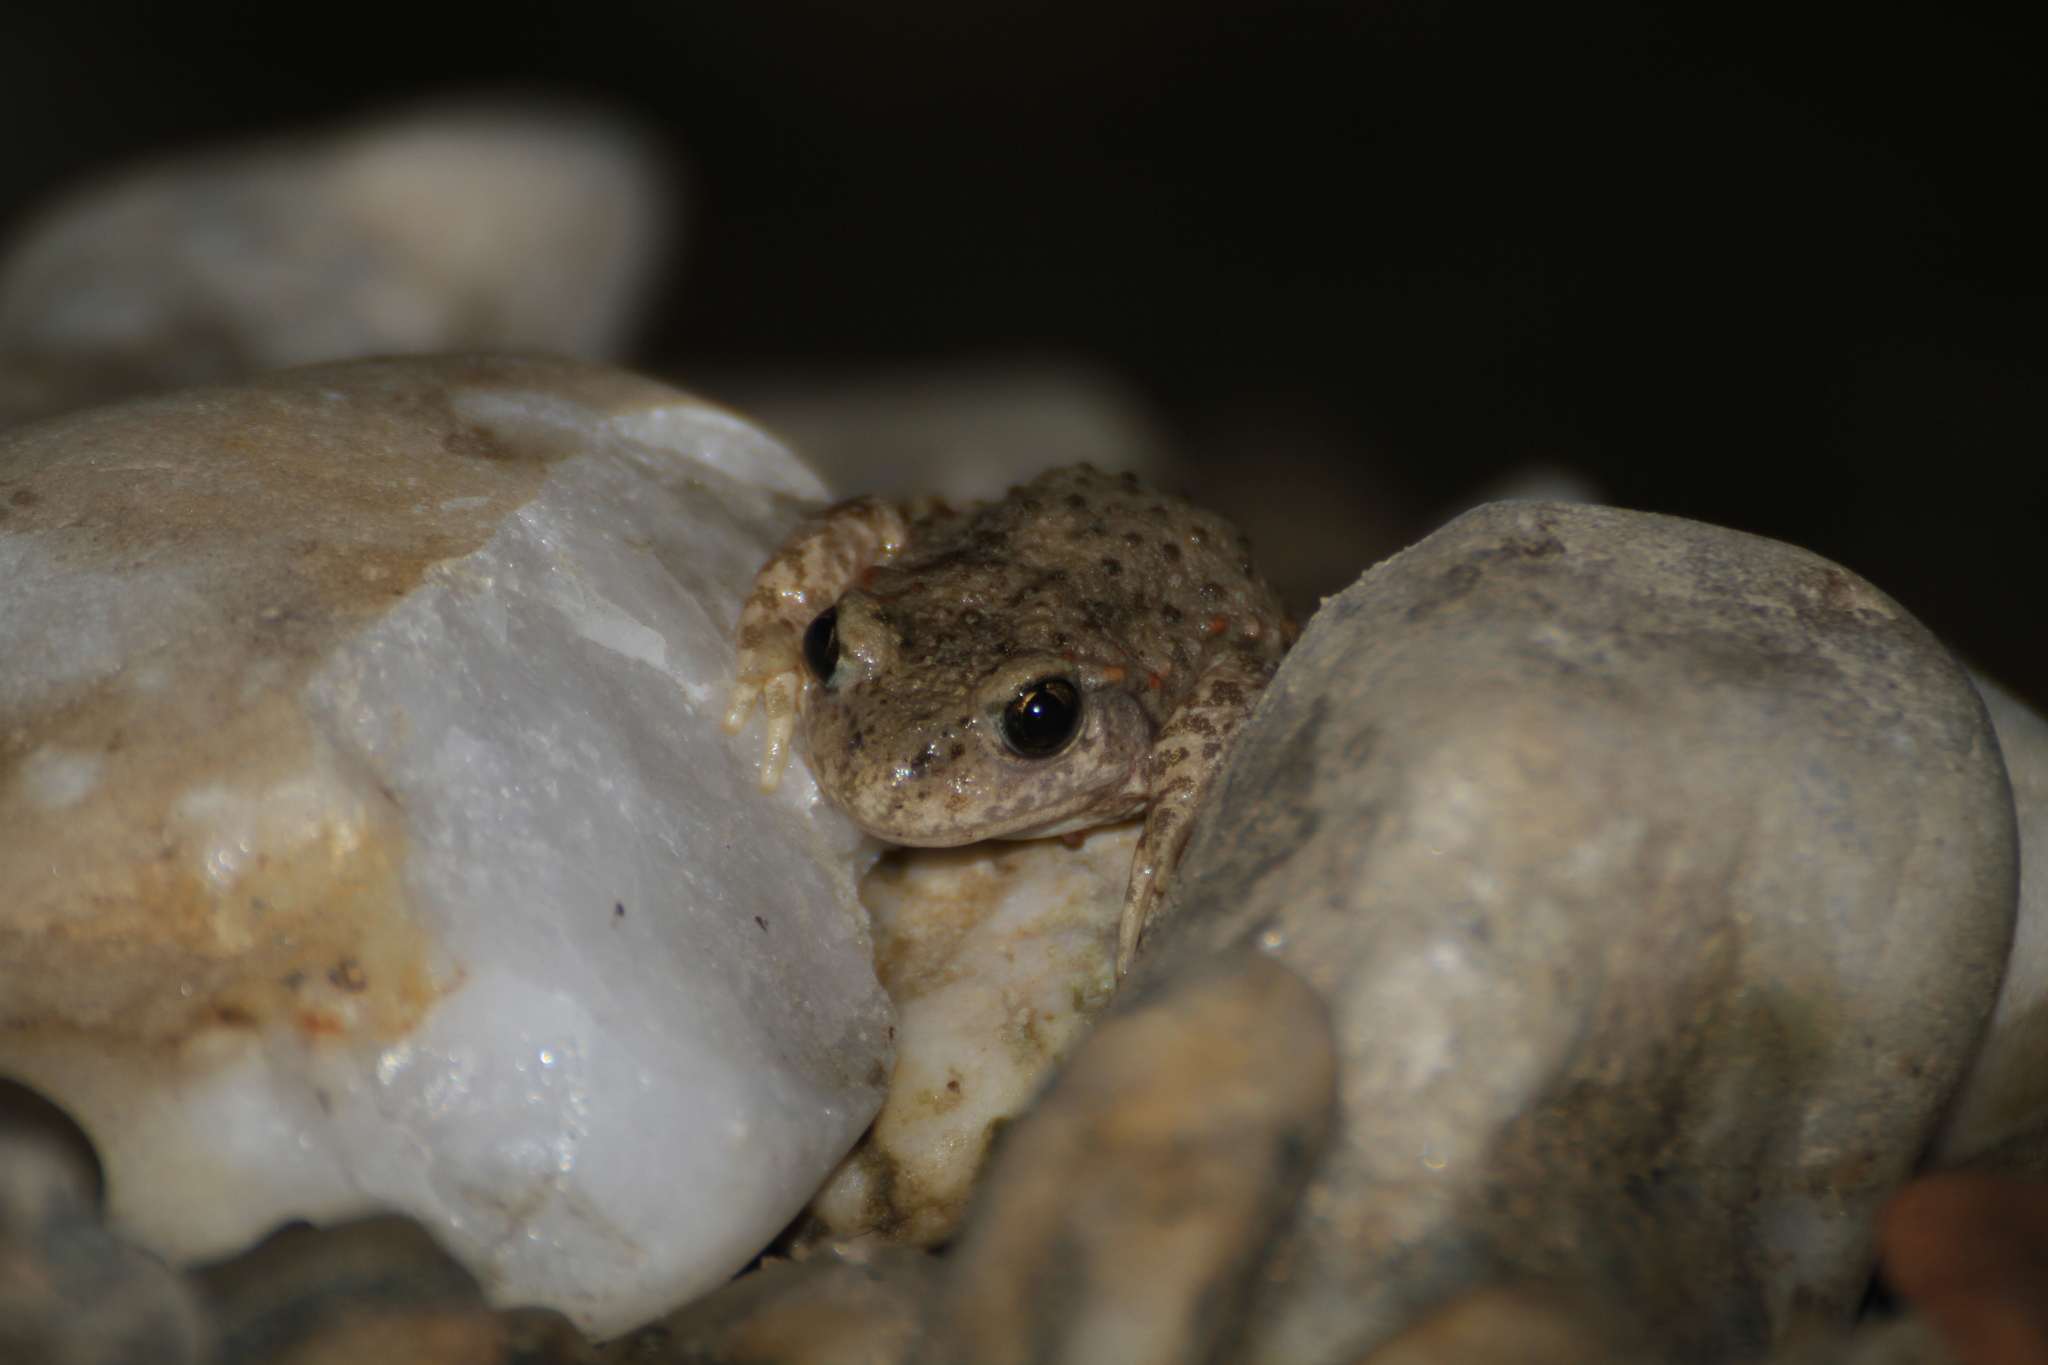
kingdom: Animalia
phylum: Chordata
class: Amphibia
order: Anura
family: Alytidae
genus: Alytes
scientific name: Alytes obstetricans
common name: Midwife toad
